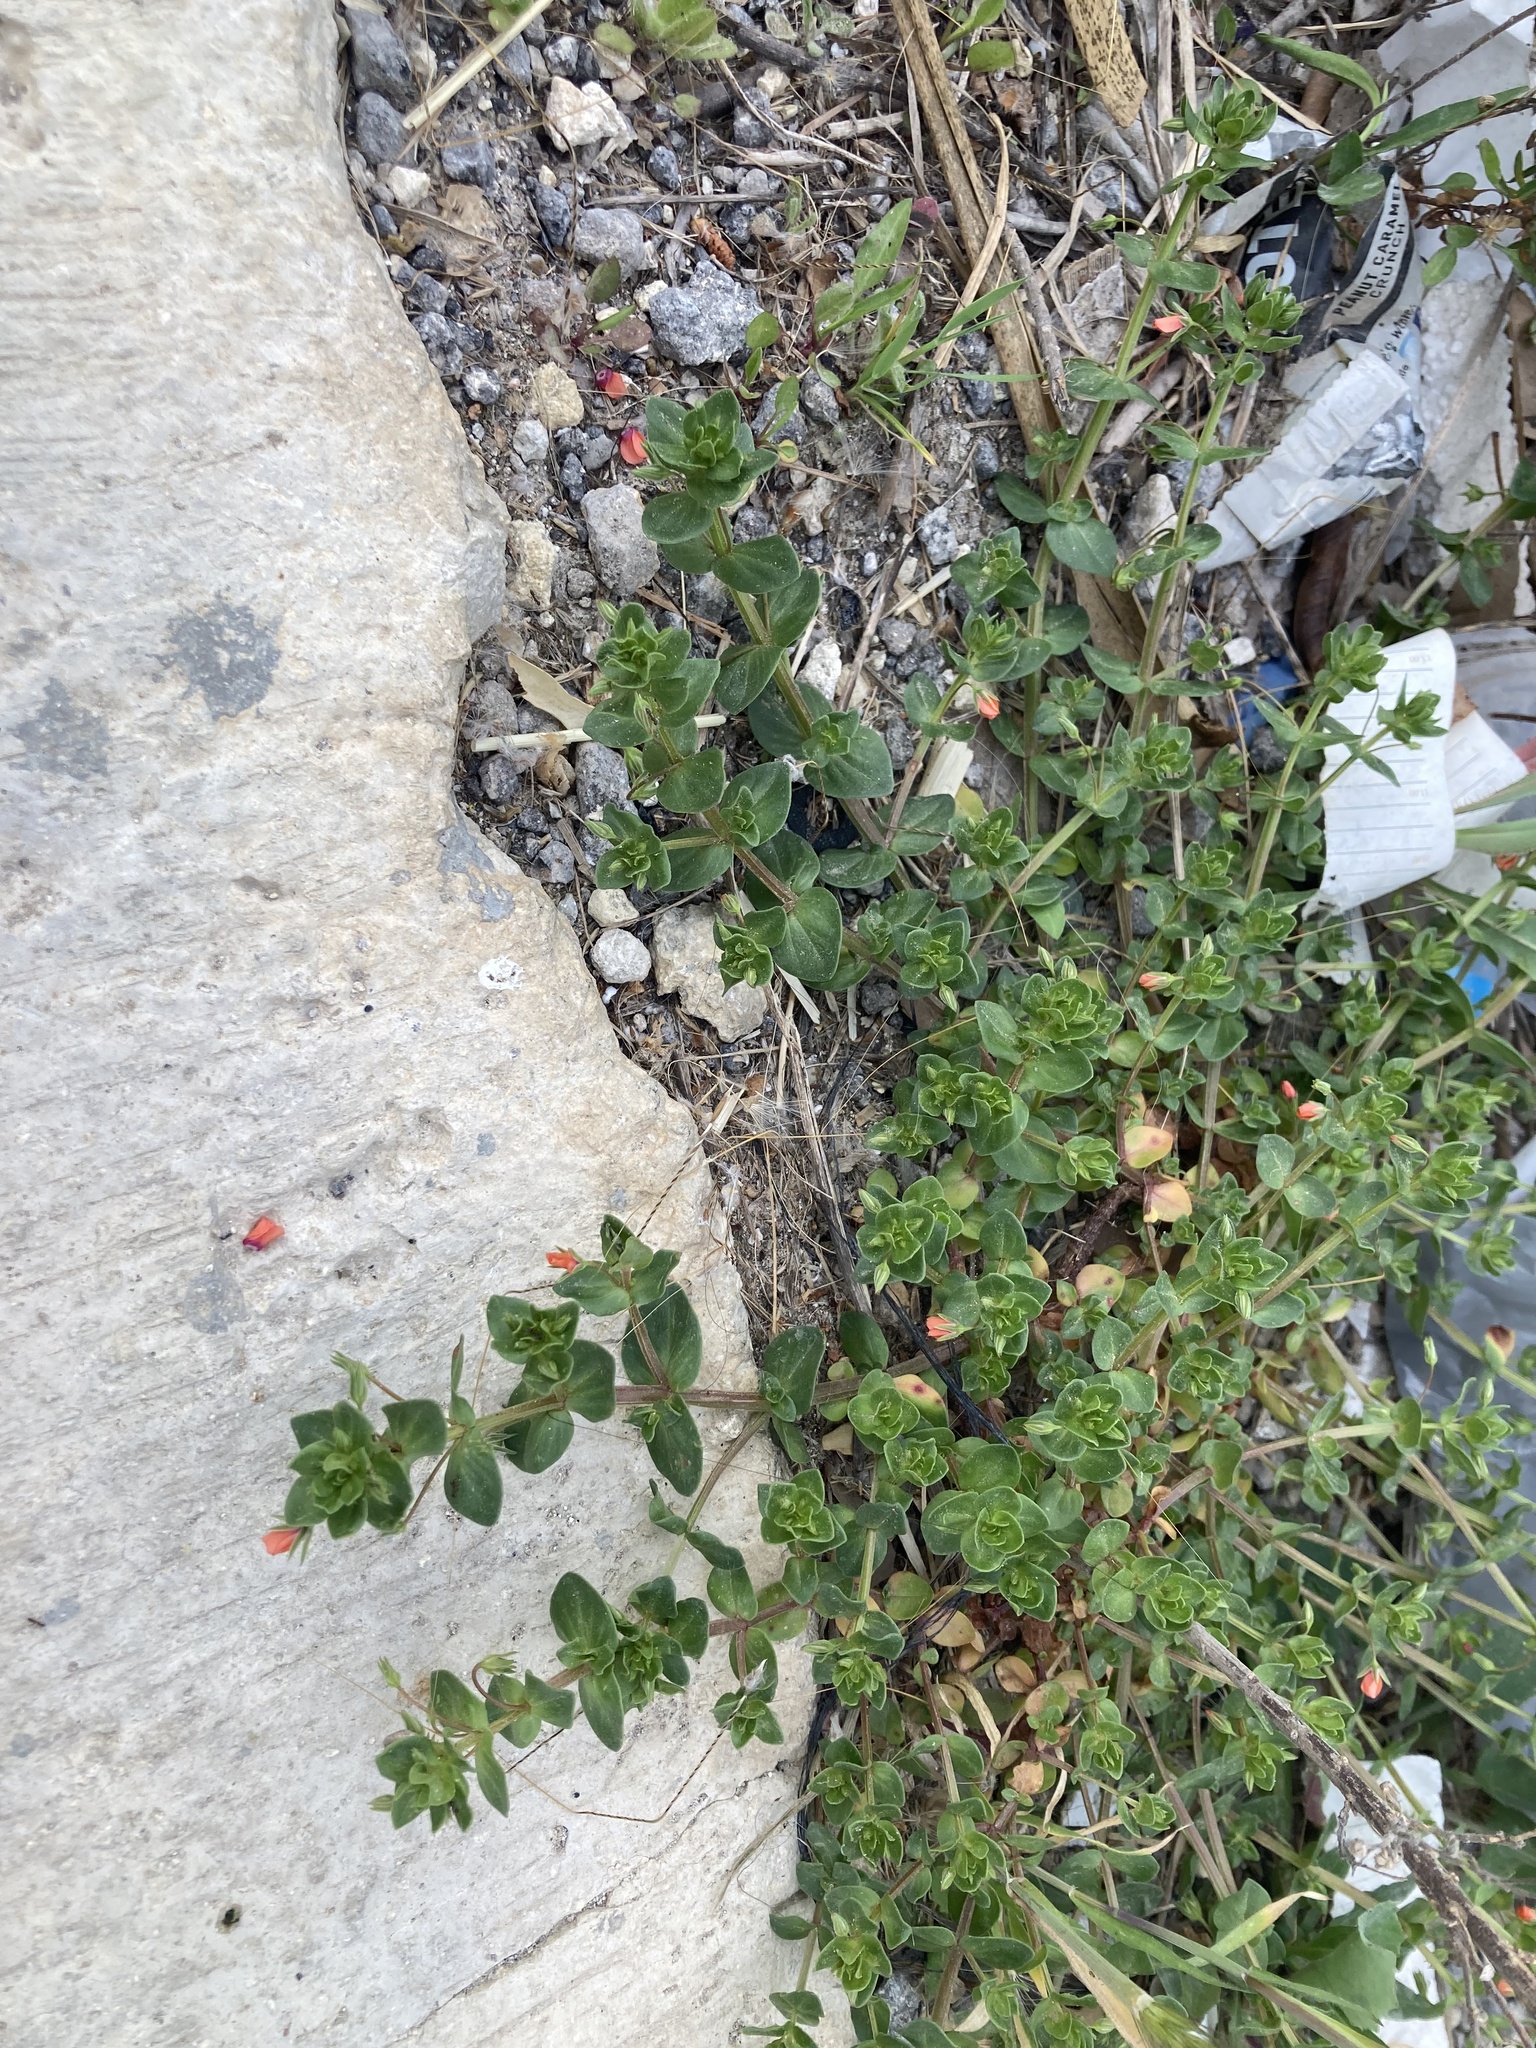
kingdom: Plantae
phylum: Tracheophyta
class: Magnoliopsida
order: Ericales
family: Primulaceae
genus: Lysimachia
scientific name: Lysimachia arvensis
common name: Scarlet pimpernel
